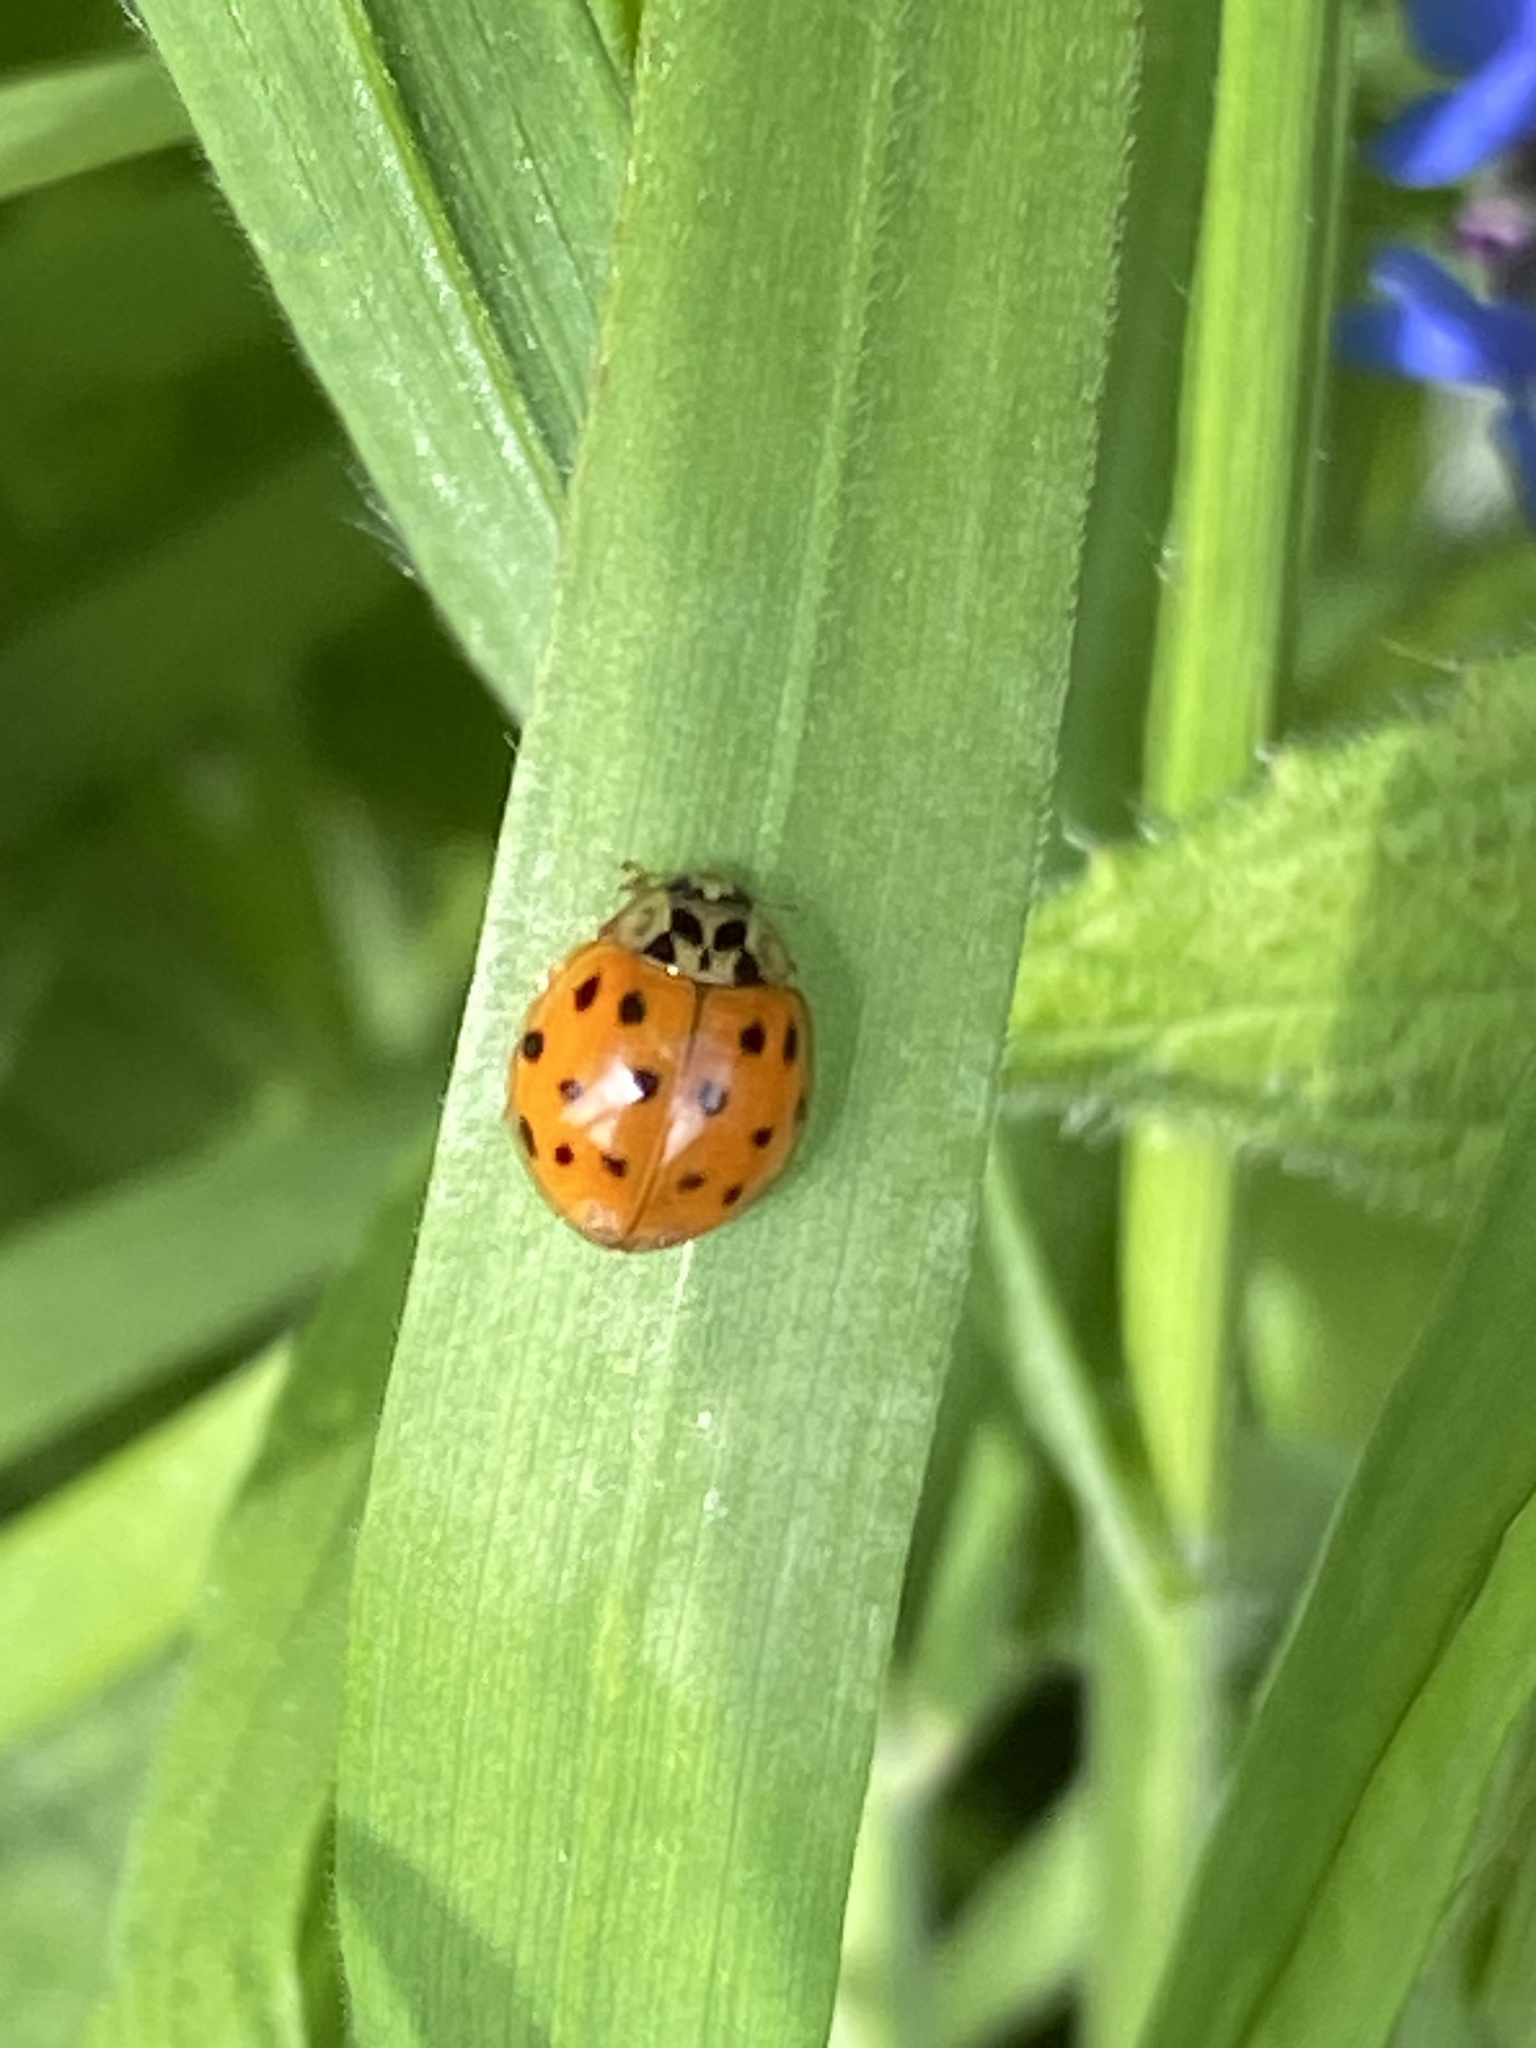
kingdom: Animalia
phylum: Arthropoda
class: Insecta
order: Coleoptera
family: Coccinellidae
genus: Harmonia
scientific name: Harmonia axyridis
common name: Harlequin ladybird
